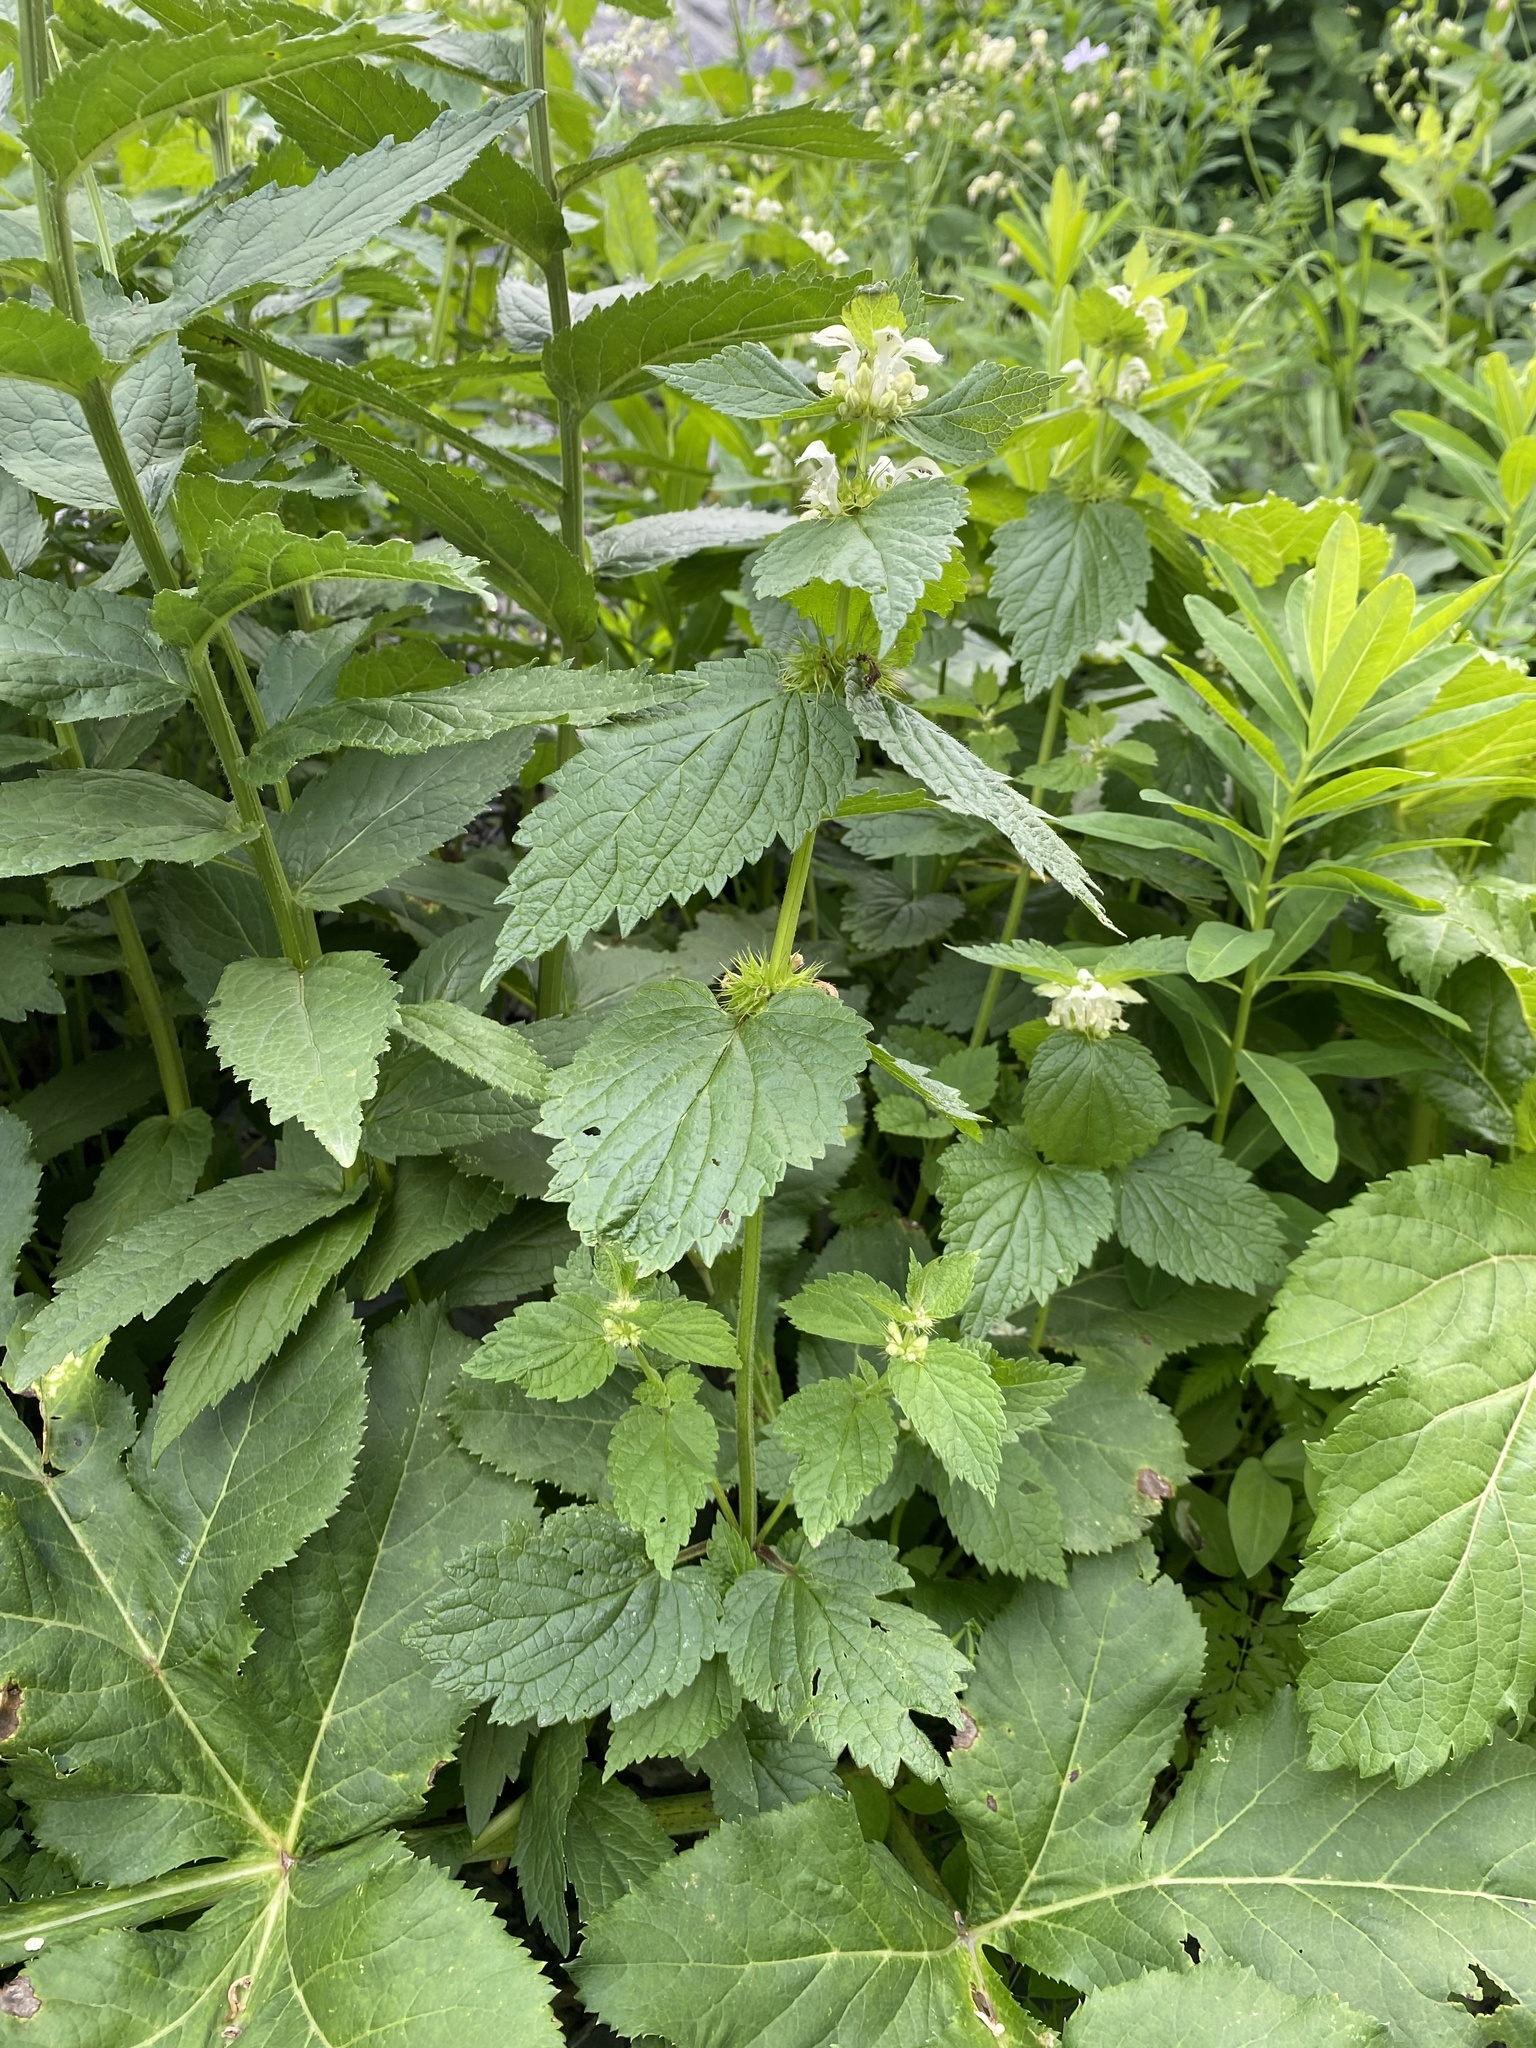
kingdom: Plantae
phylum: Tracheophyta
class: Magnoliopsida
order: Lamiales
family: Lamiaceae
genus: Lamium
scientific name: Lamium album
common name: White dead-nettle
